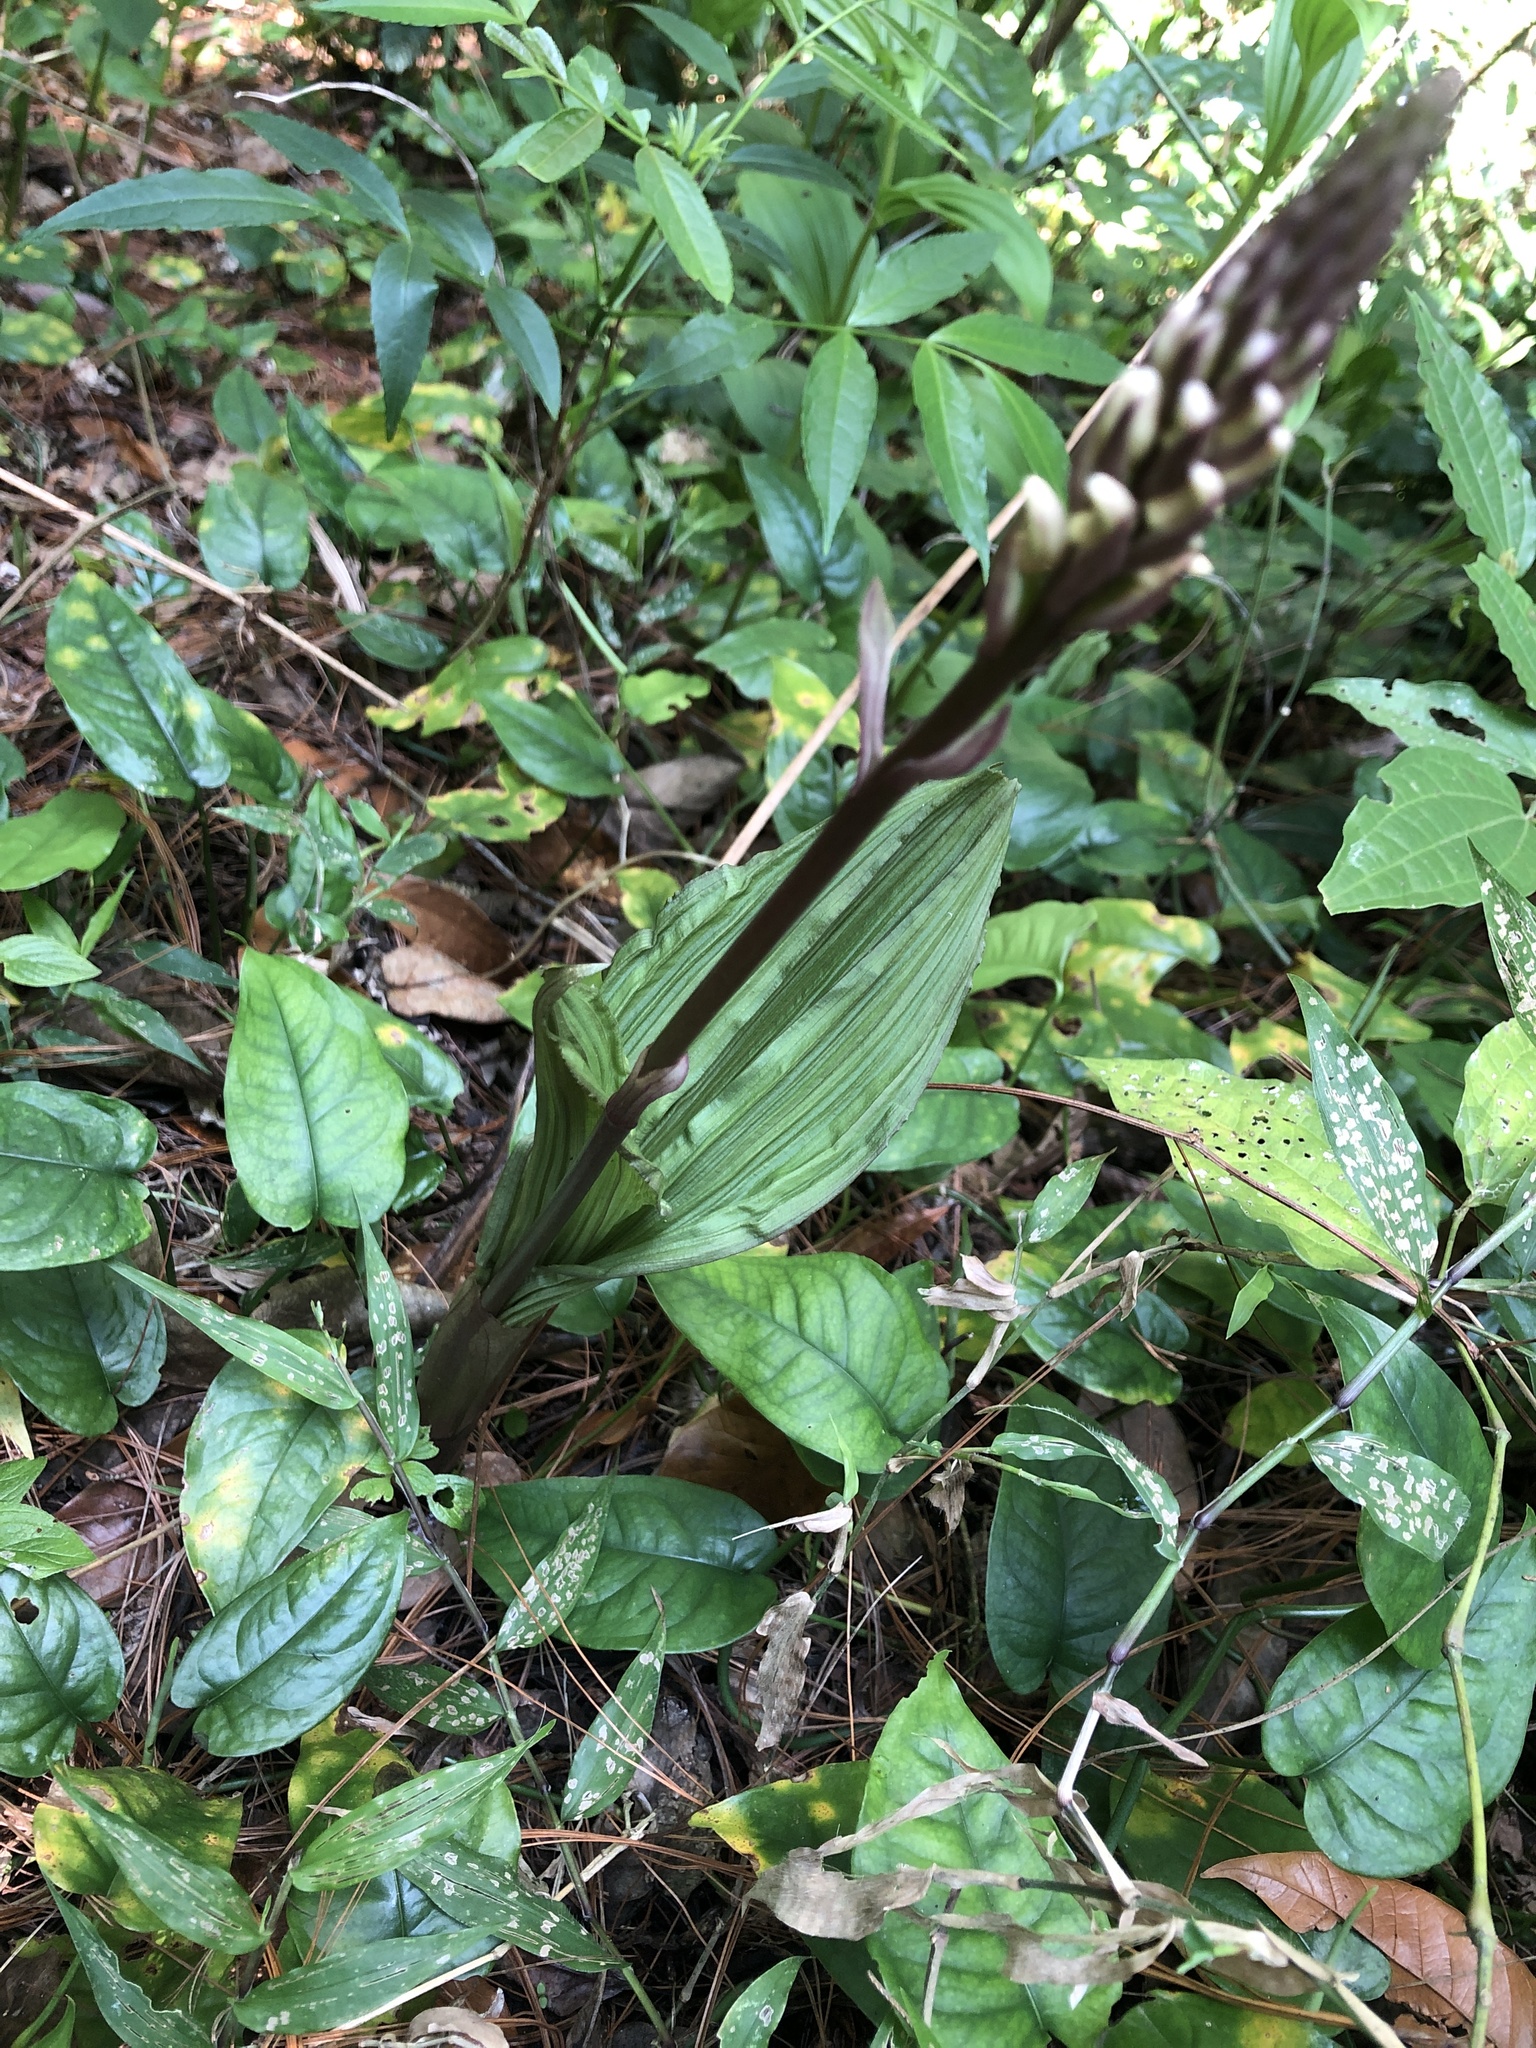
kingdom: Plantae
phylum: Tracheophyta
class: Liliopsida
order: Asparagales
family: Orchidaceae
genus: Govenia
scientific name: Govenia matudae
